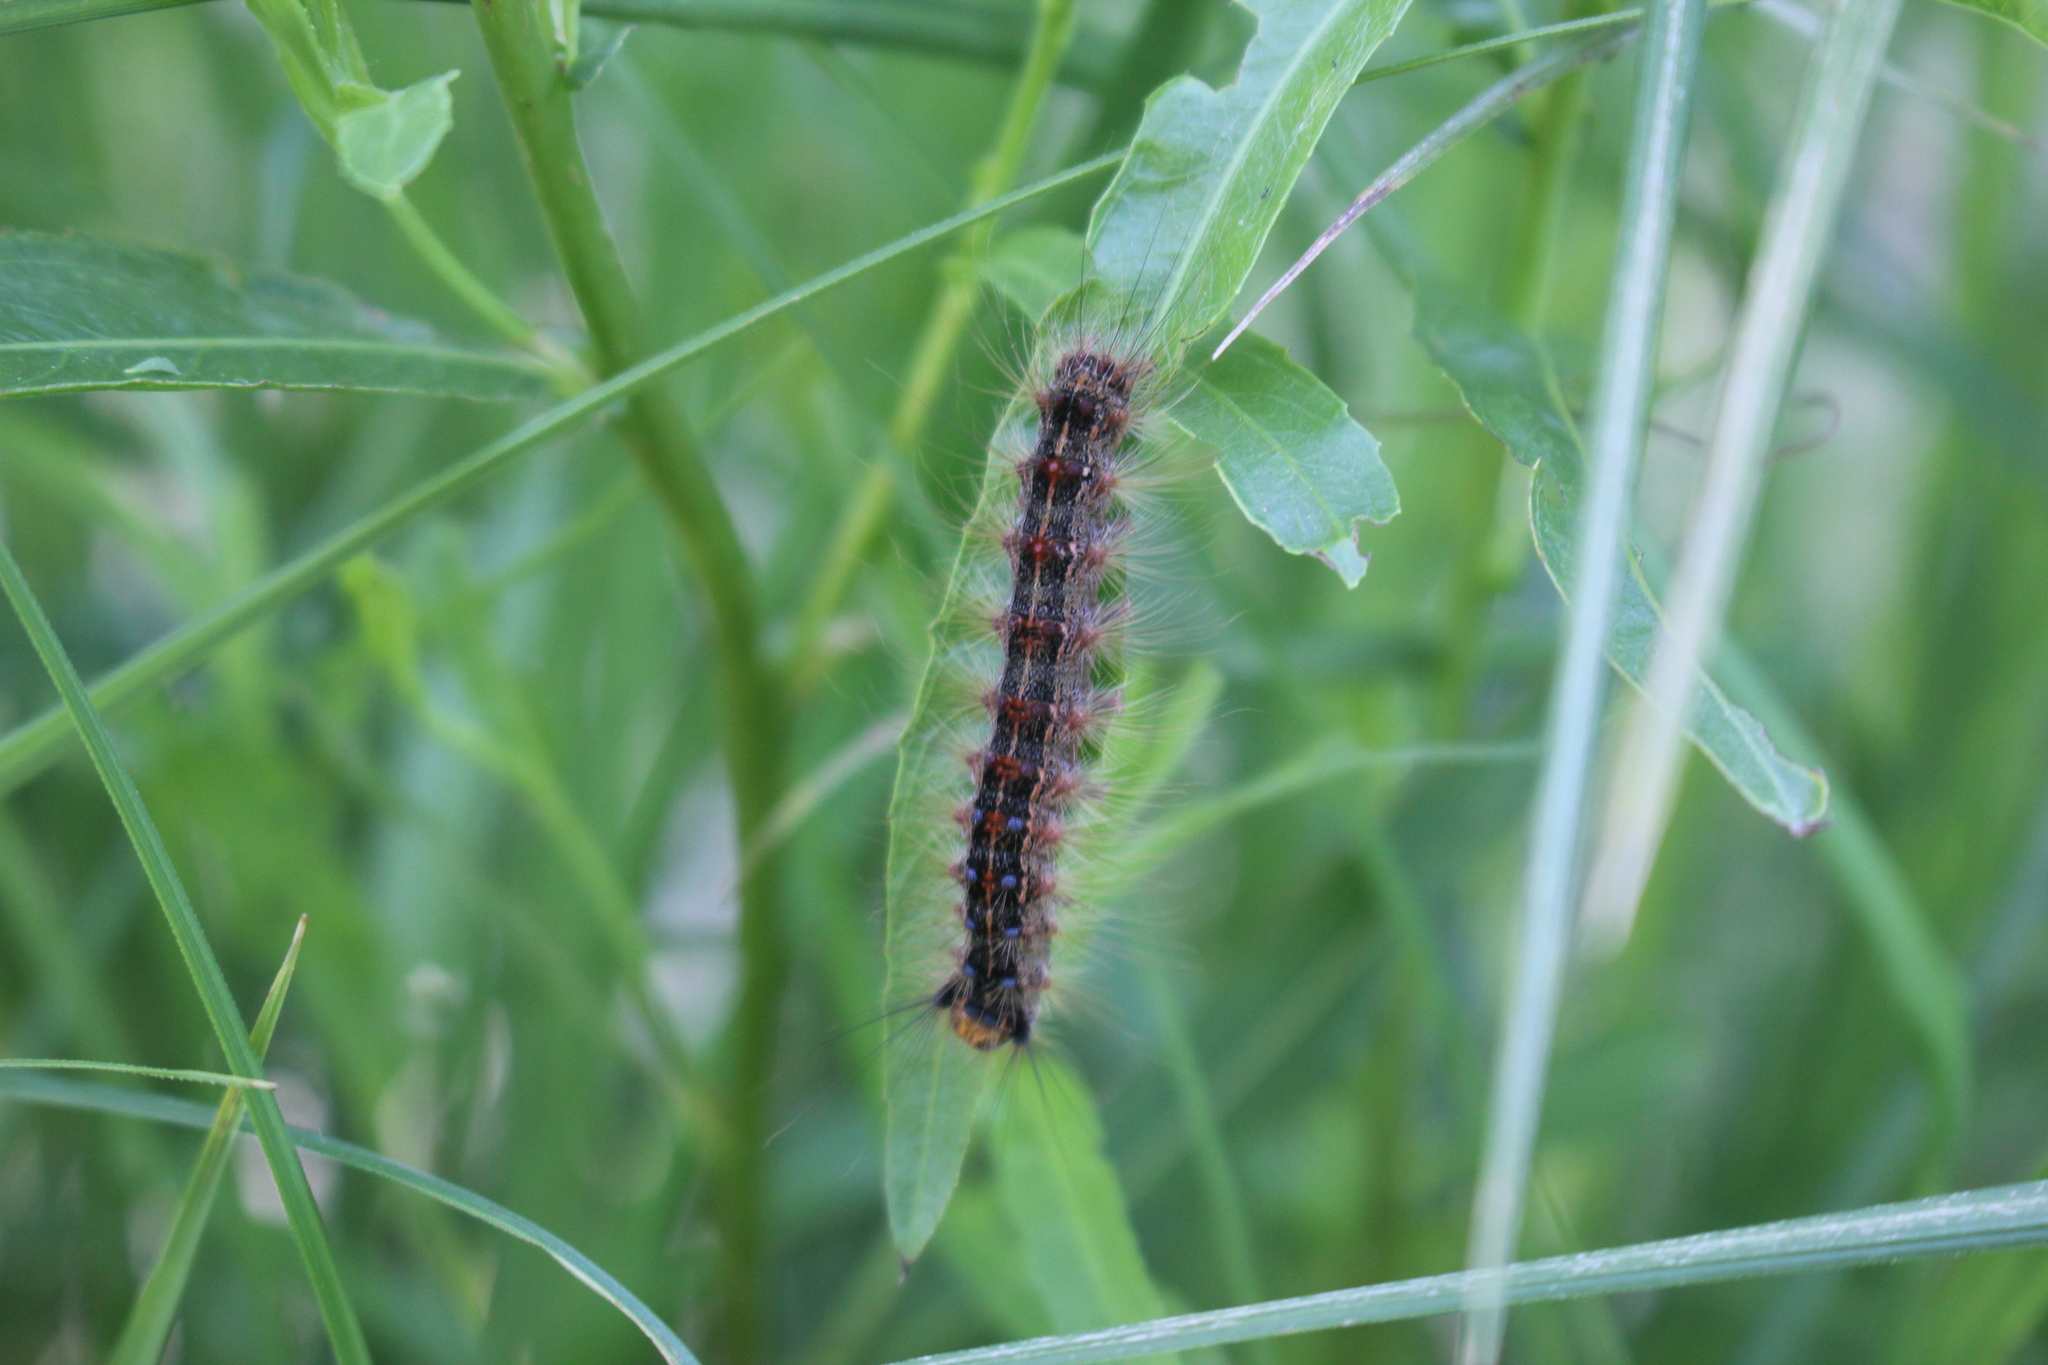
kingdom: Animalia
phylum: Arthropoda
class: Insecta
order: Lepidoptera
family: Erebidae
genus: Lymantria
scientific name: Lymantria dispar
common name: Gypsy moth
